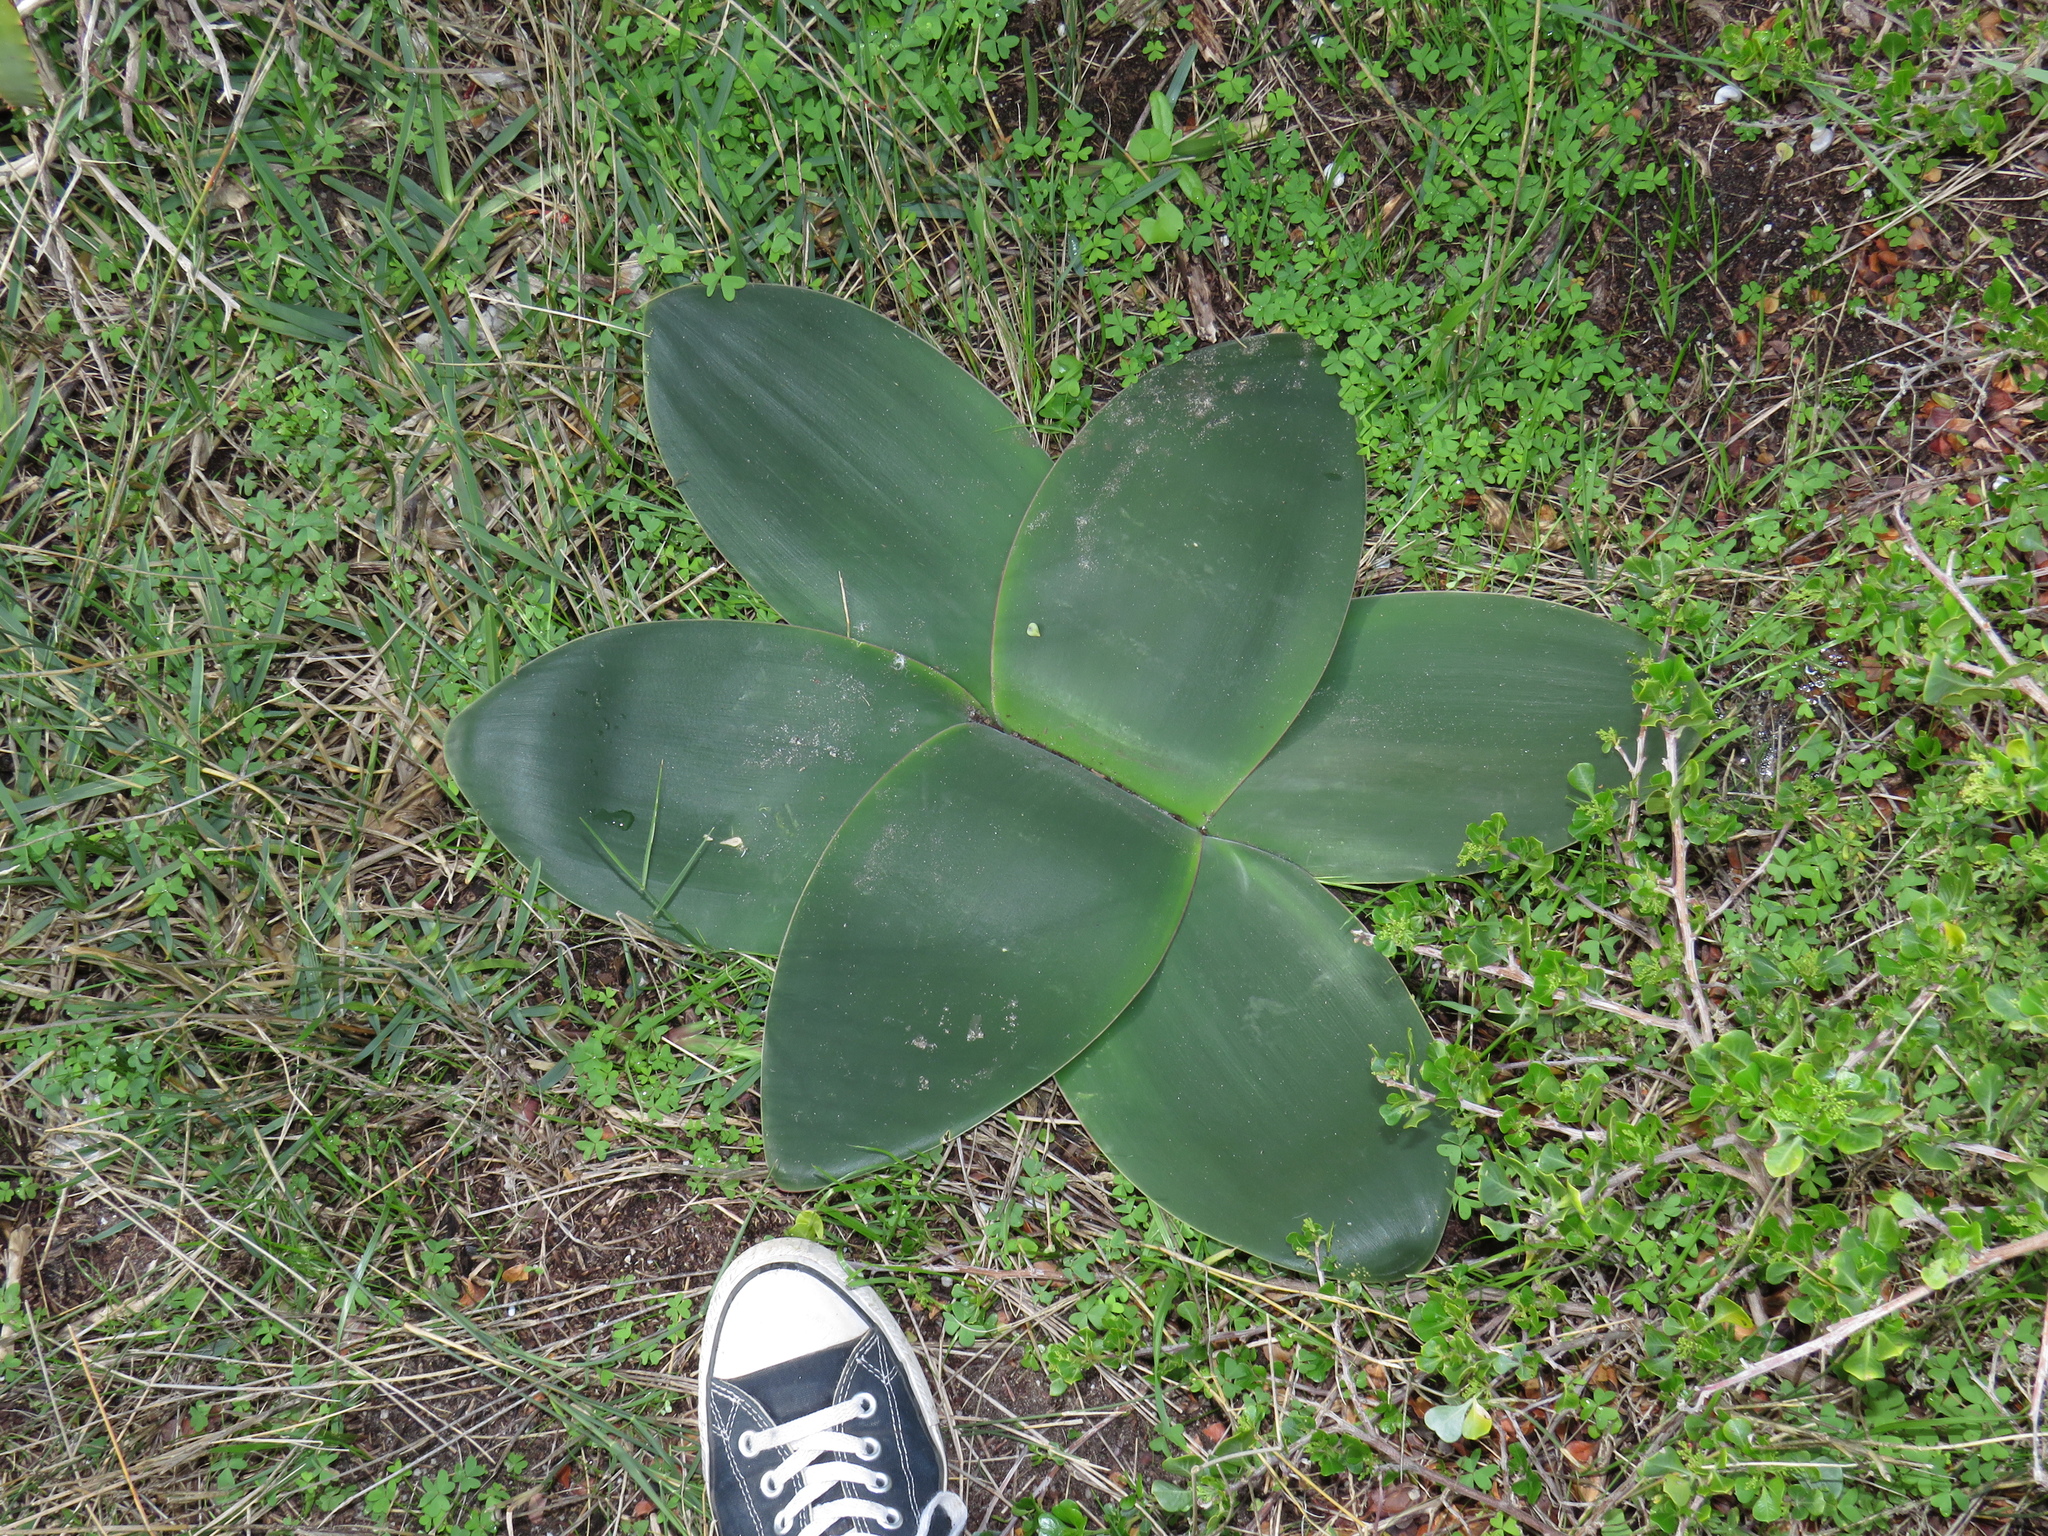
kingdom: Plantae
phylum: Tracheophyta
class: Liliopsida
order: Asparagales
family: Amaryllidaceae
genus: Brunsvigia
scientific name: Brunsvigia orientalis
